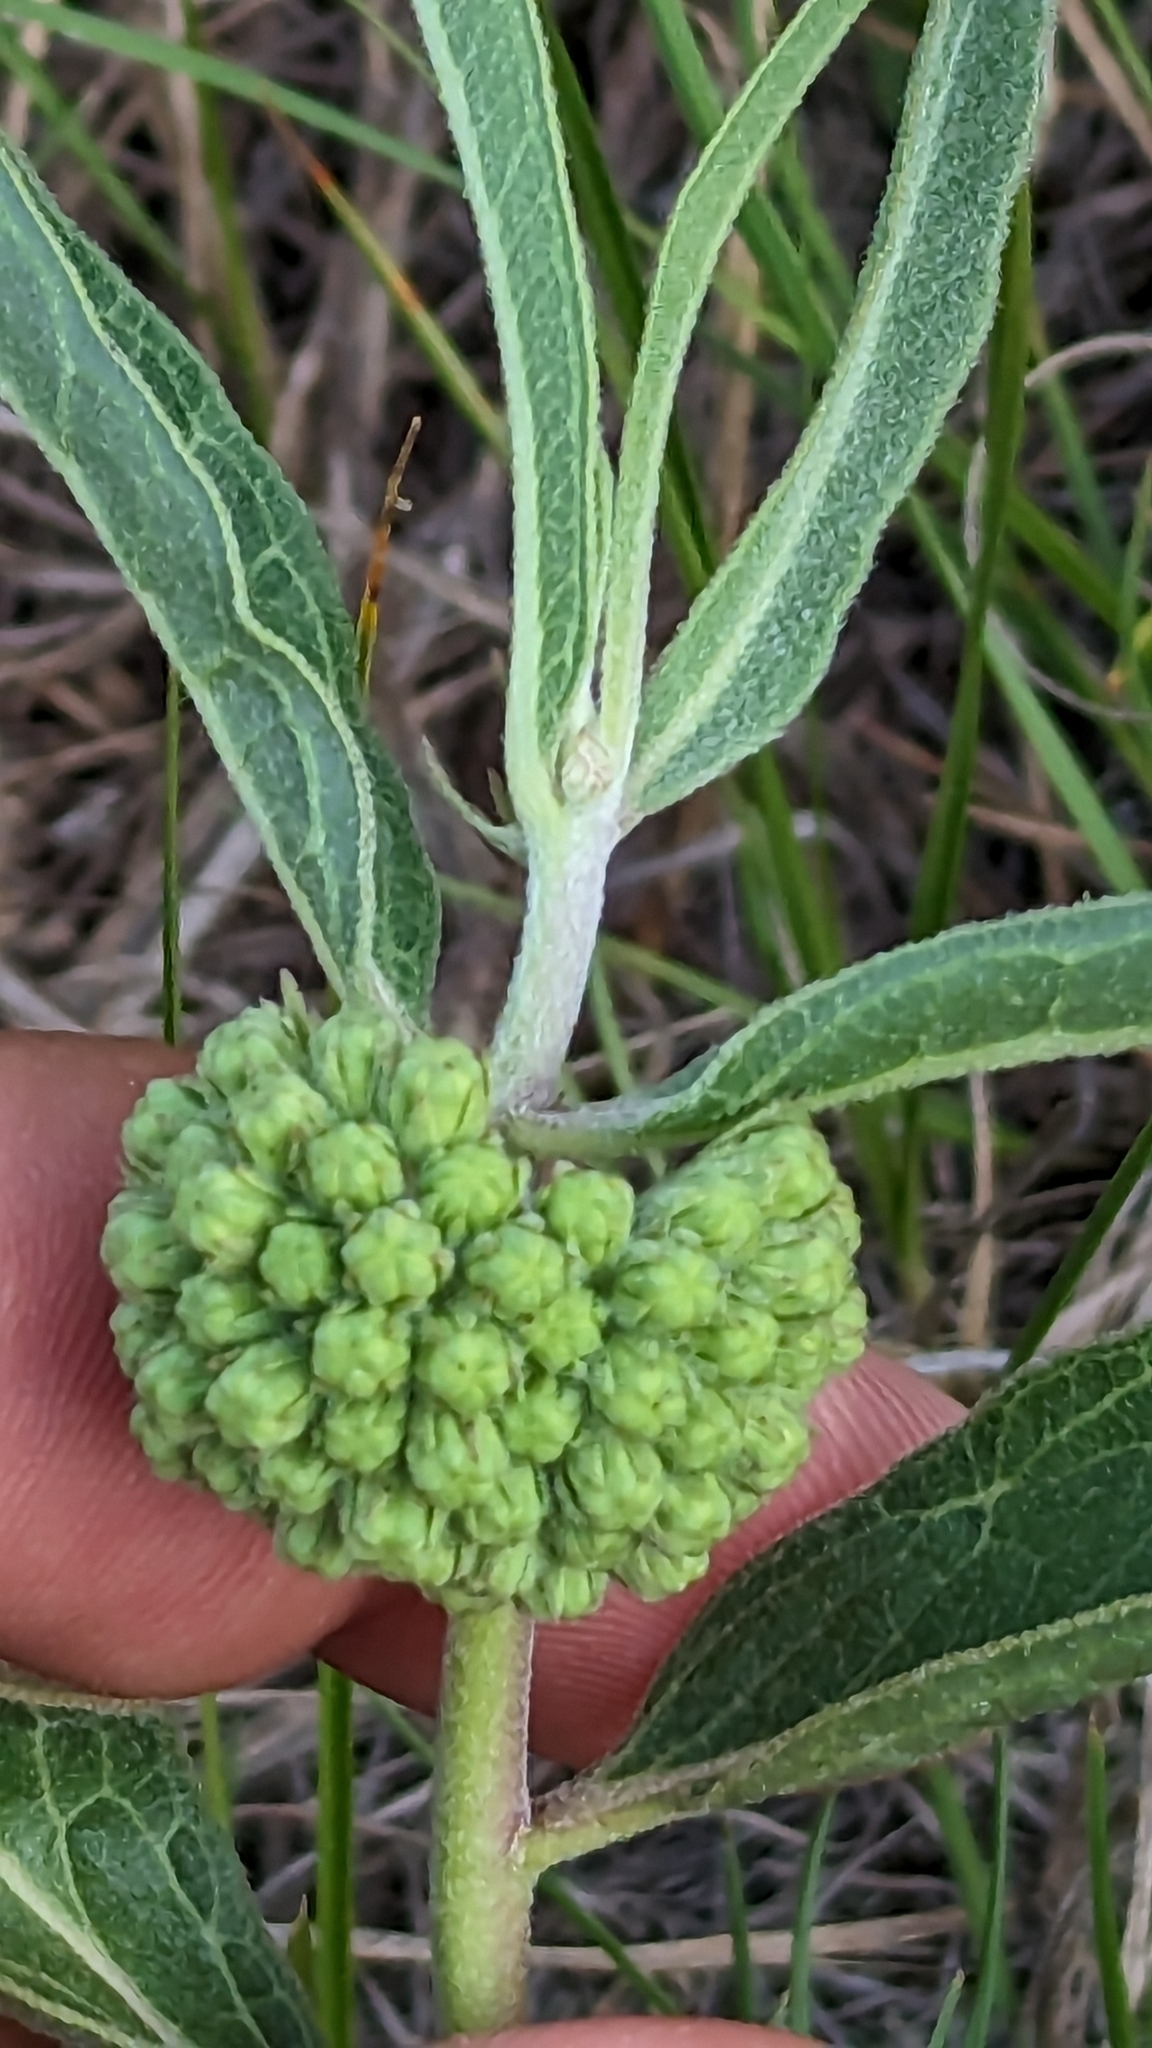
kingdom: Plantae
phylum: Tracheophyta
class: Magnoliopsida
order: Gentianales
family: Apocynaceae
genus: Asclepias
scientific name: Asclepias viridiflora
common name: Green comet milkweed
